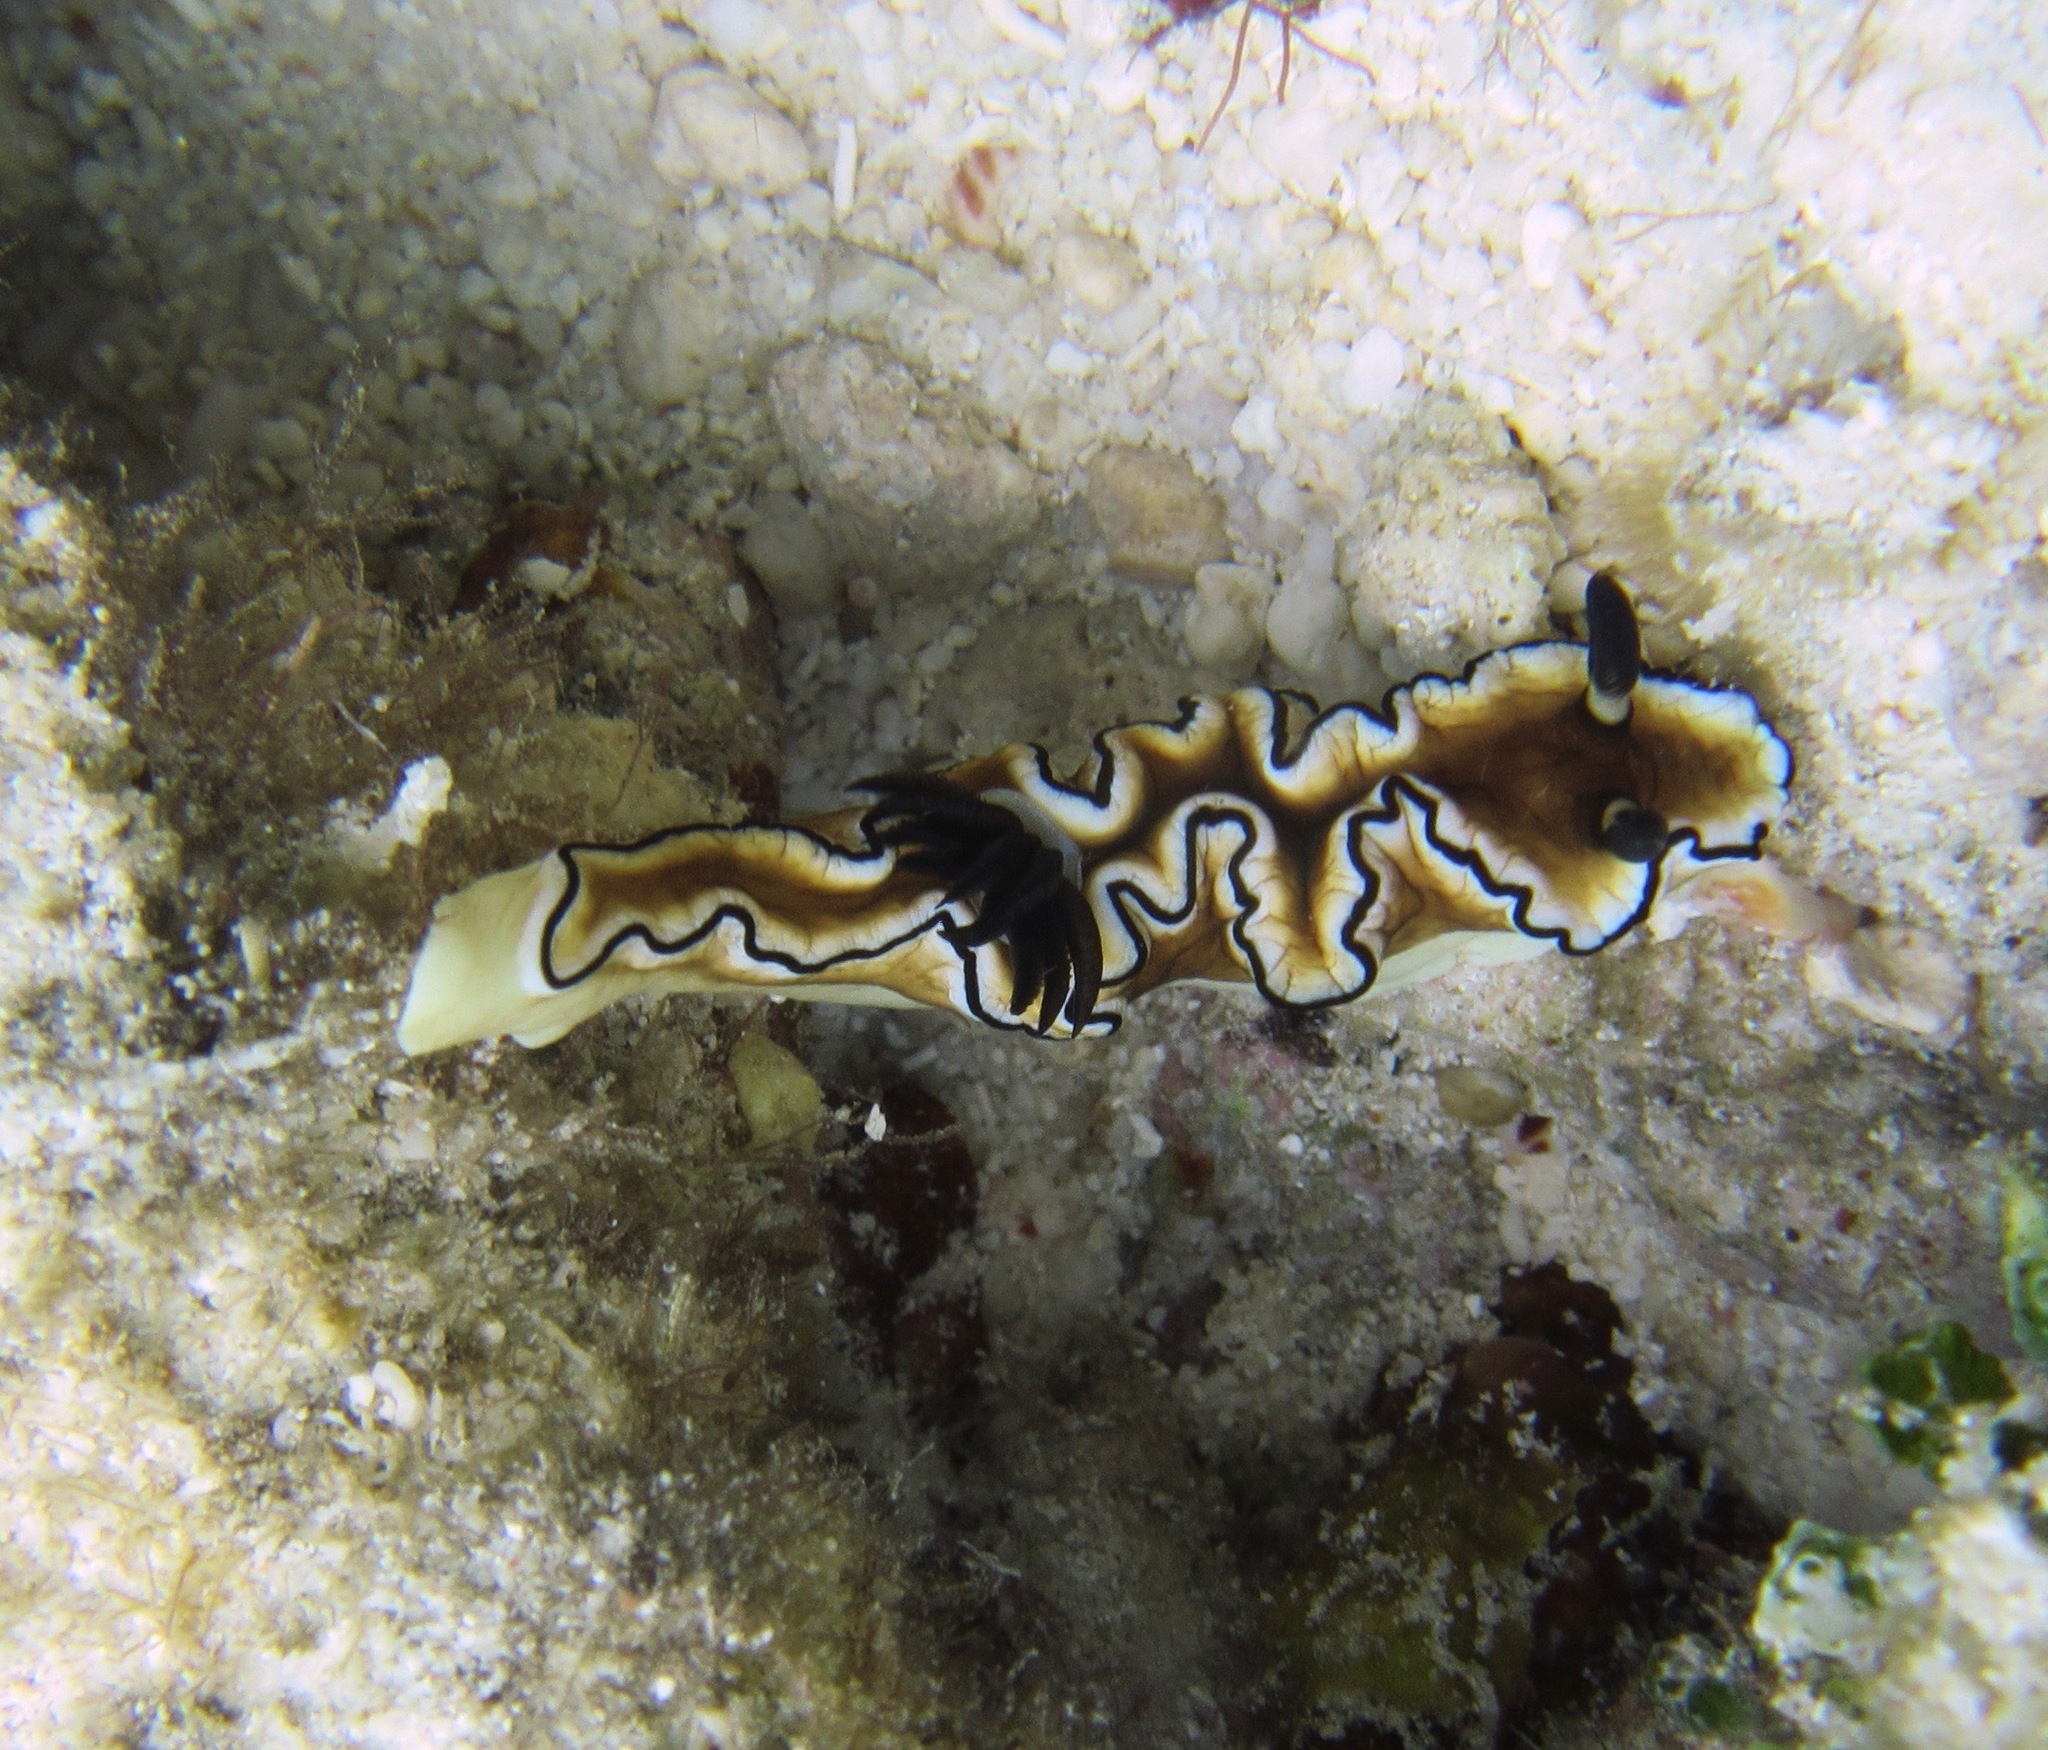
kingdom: Animalia
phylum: Mollusca
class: Gastropoda
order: Nudibranchia
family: Chromodorididae
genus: Doriprismatica
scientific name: Doriprismatica atromarginata
